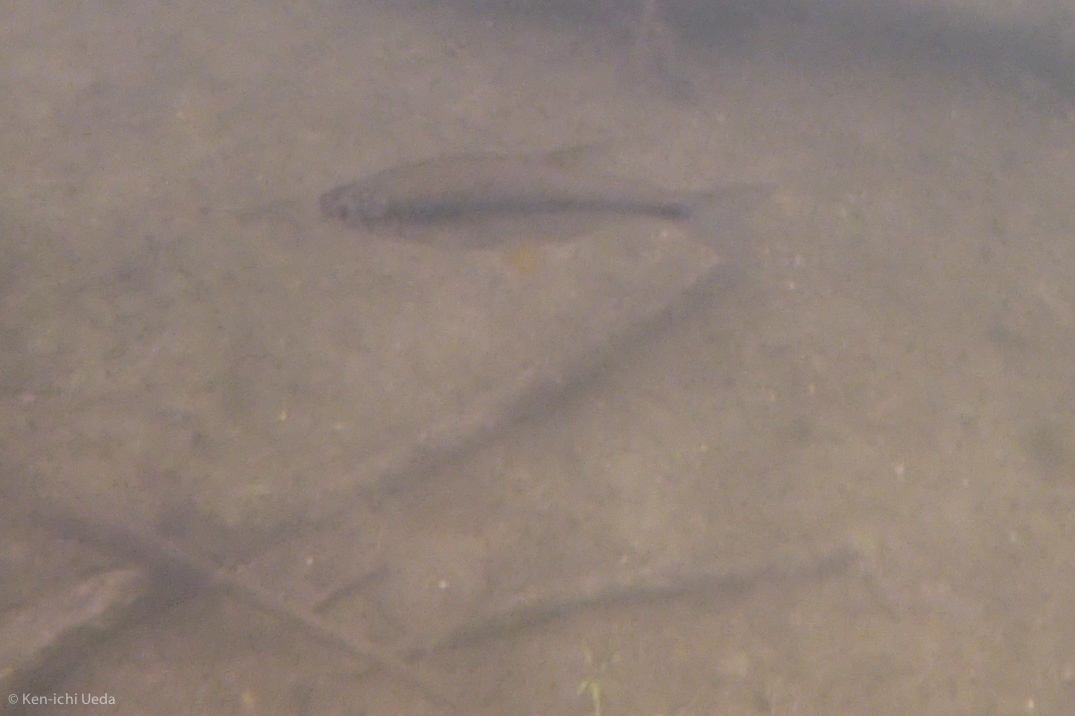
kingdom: Animalia
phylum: Chordata
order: Cypriniformes
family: Cyprinidae
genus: Notemigonus
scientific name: Notemigonus crysoleucas
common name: Golden shiner
